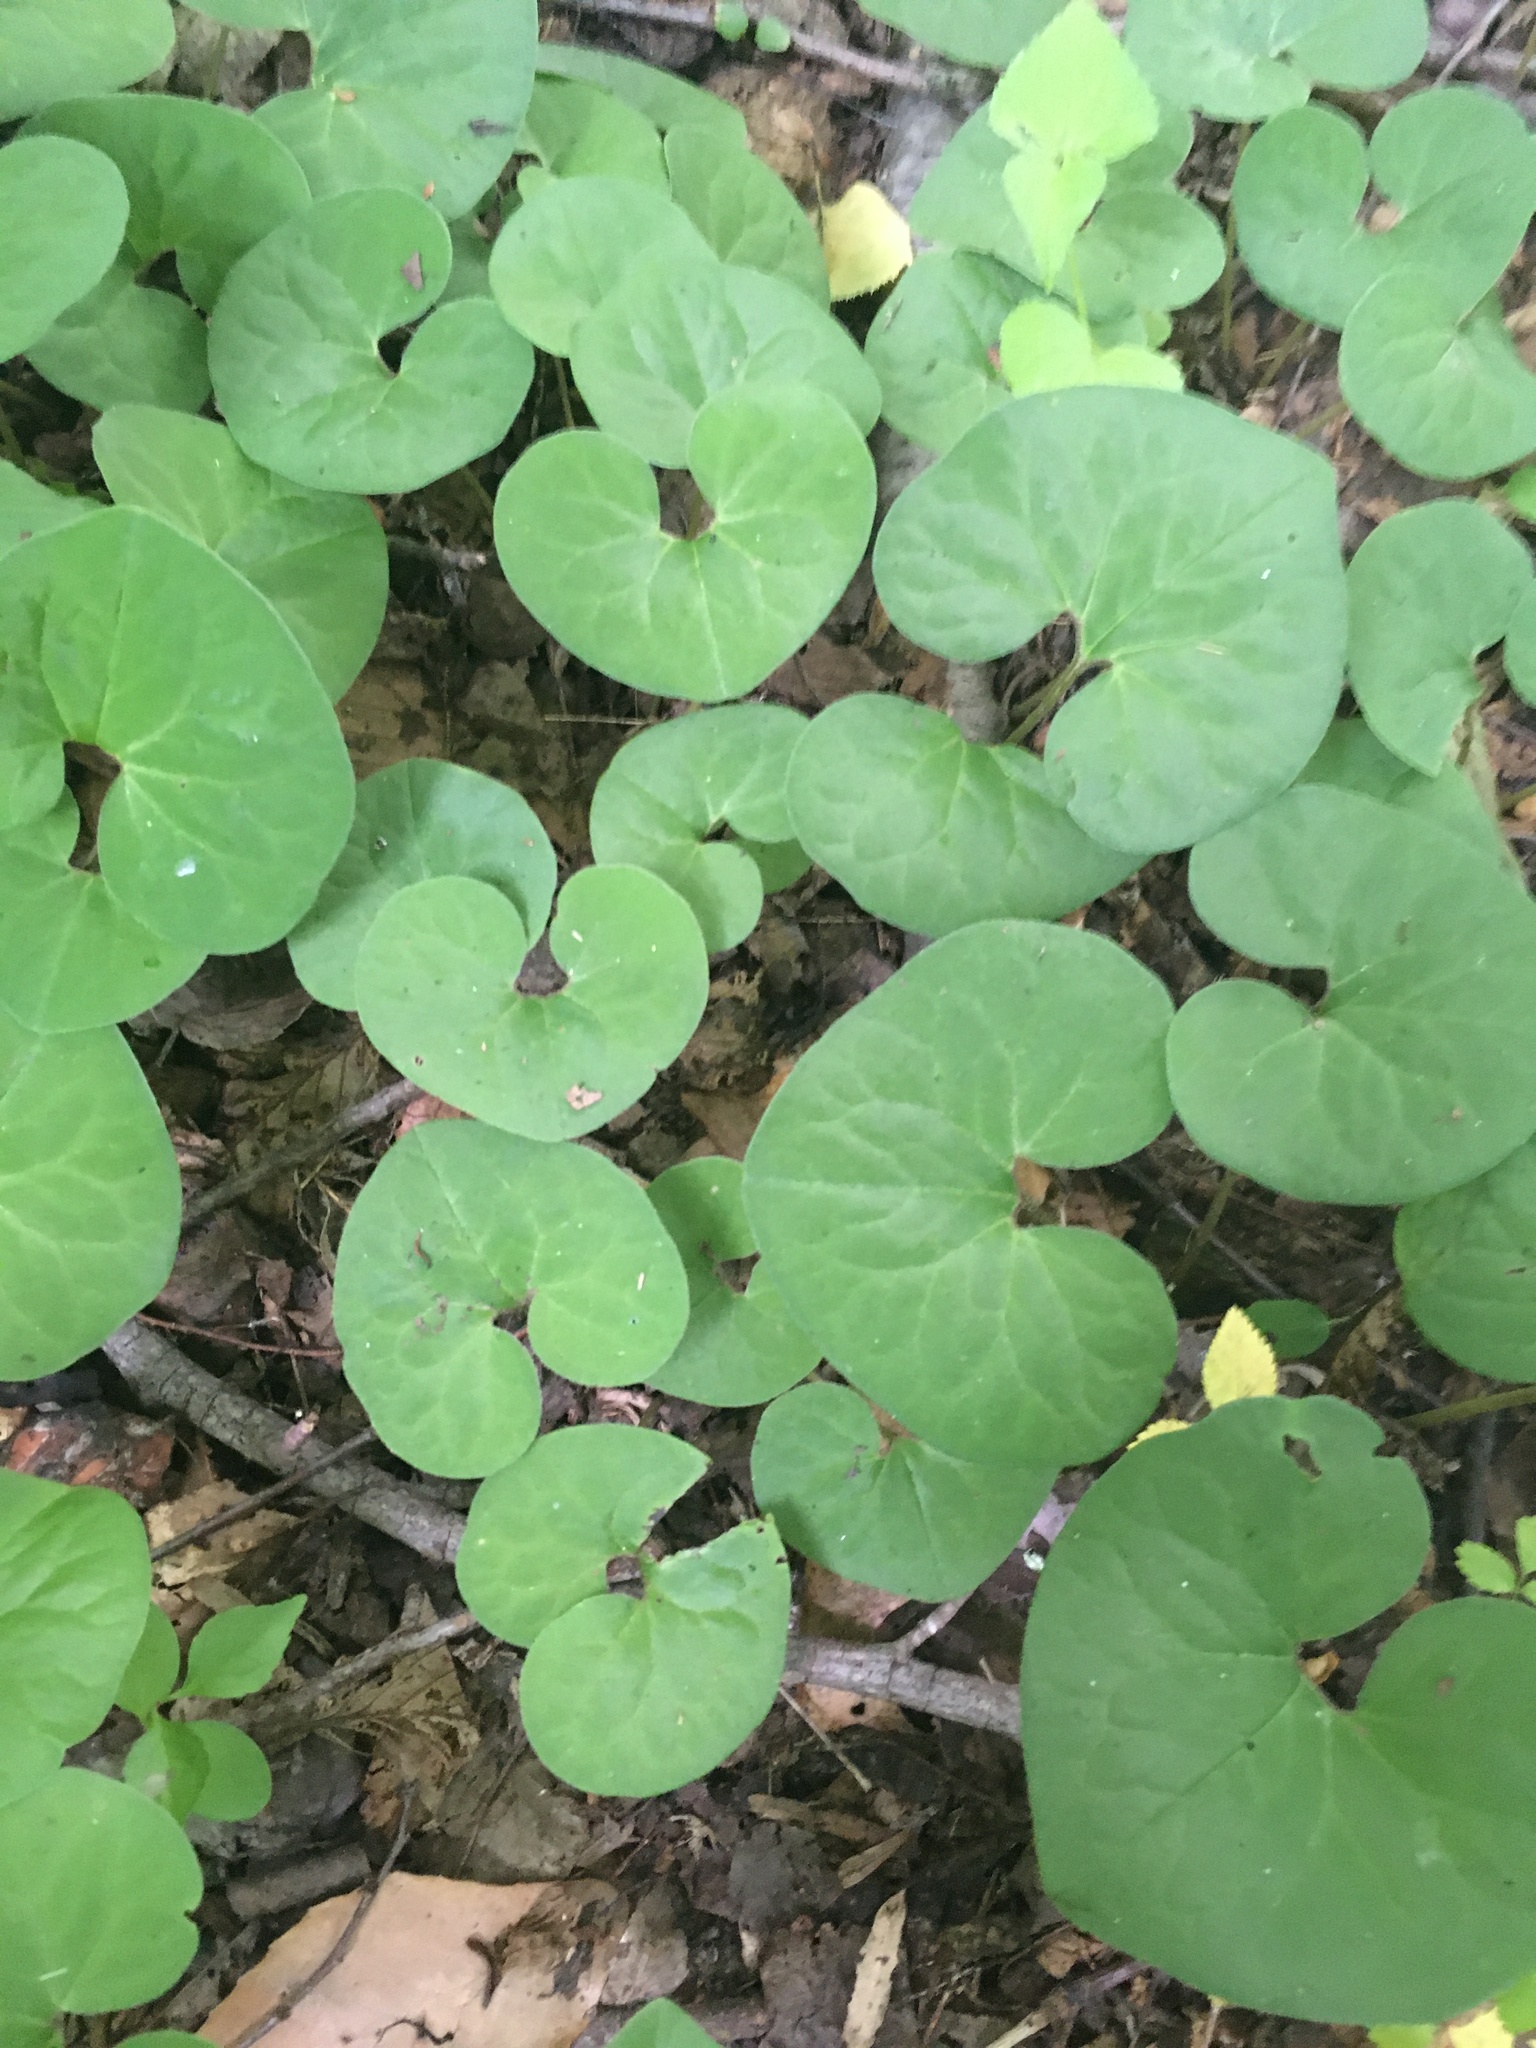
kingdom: Plantae
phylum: Tracheophyta
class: Magnoliopsida
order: Piperales
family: Aristolochiaceae
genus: Asarum
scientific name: Asarum canadense
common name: Wild ginger
